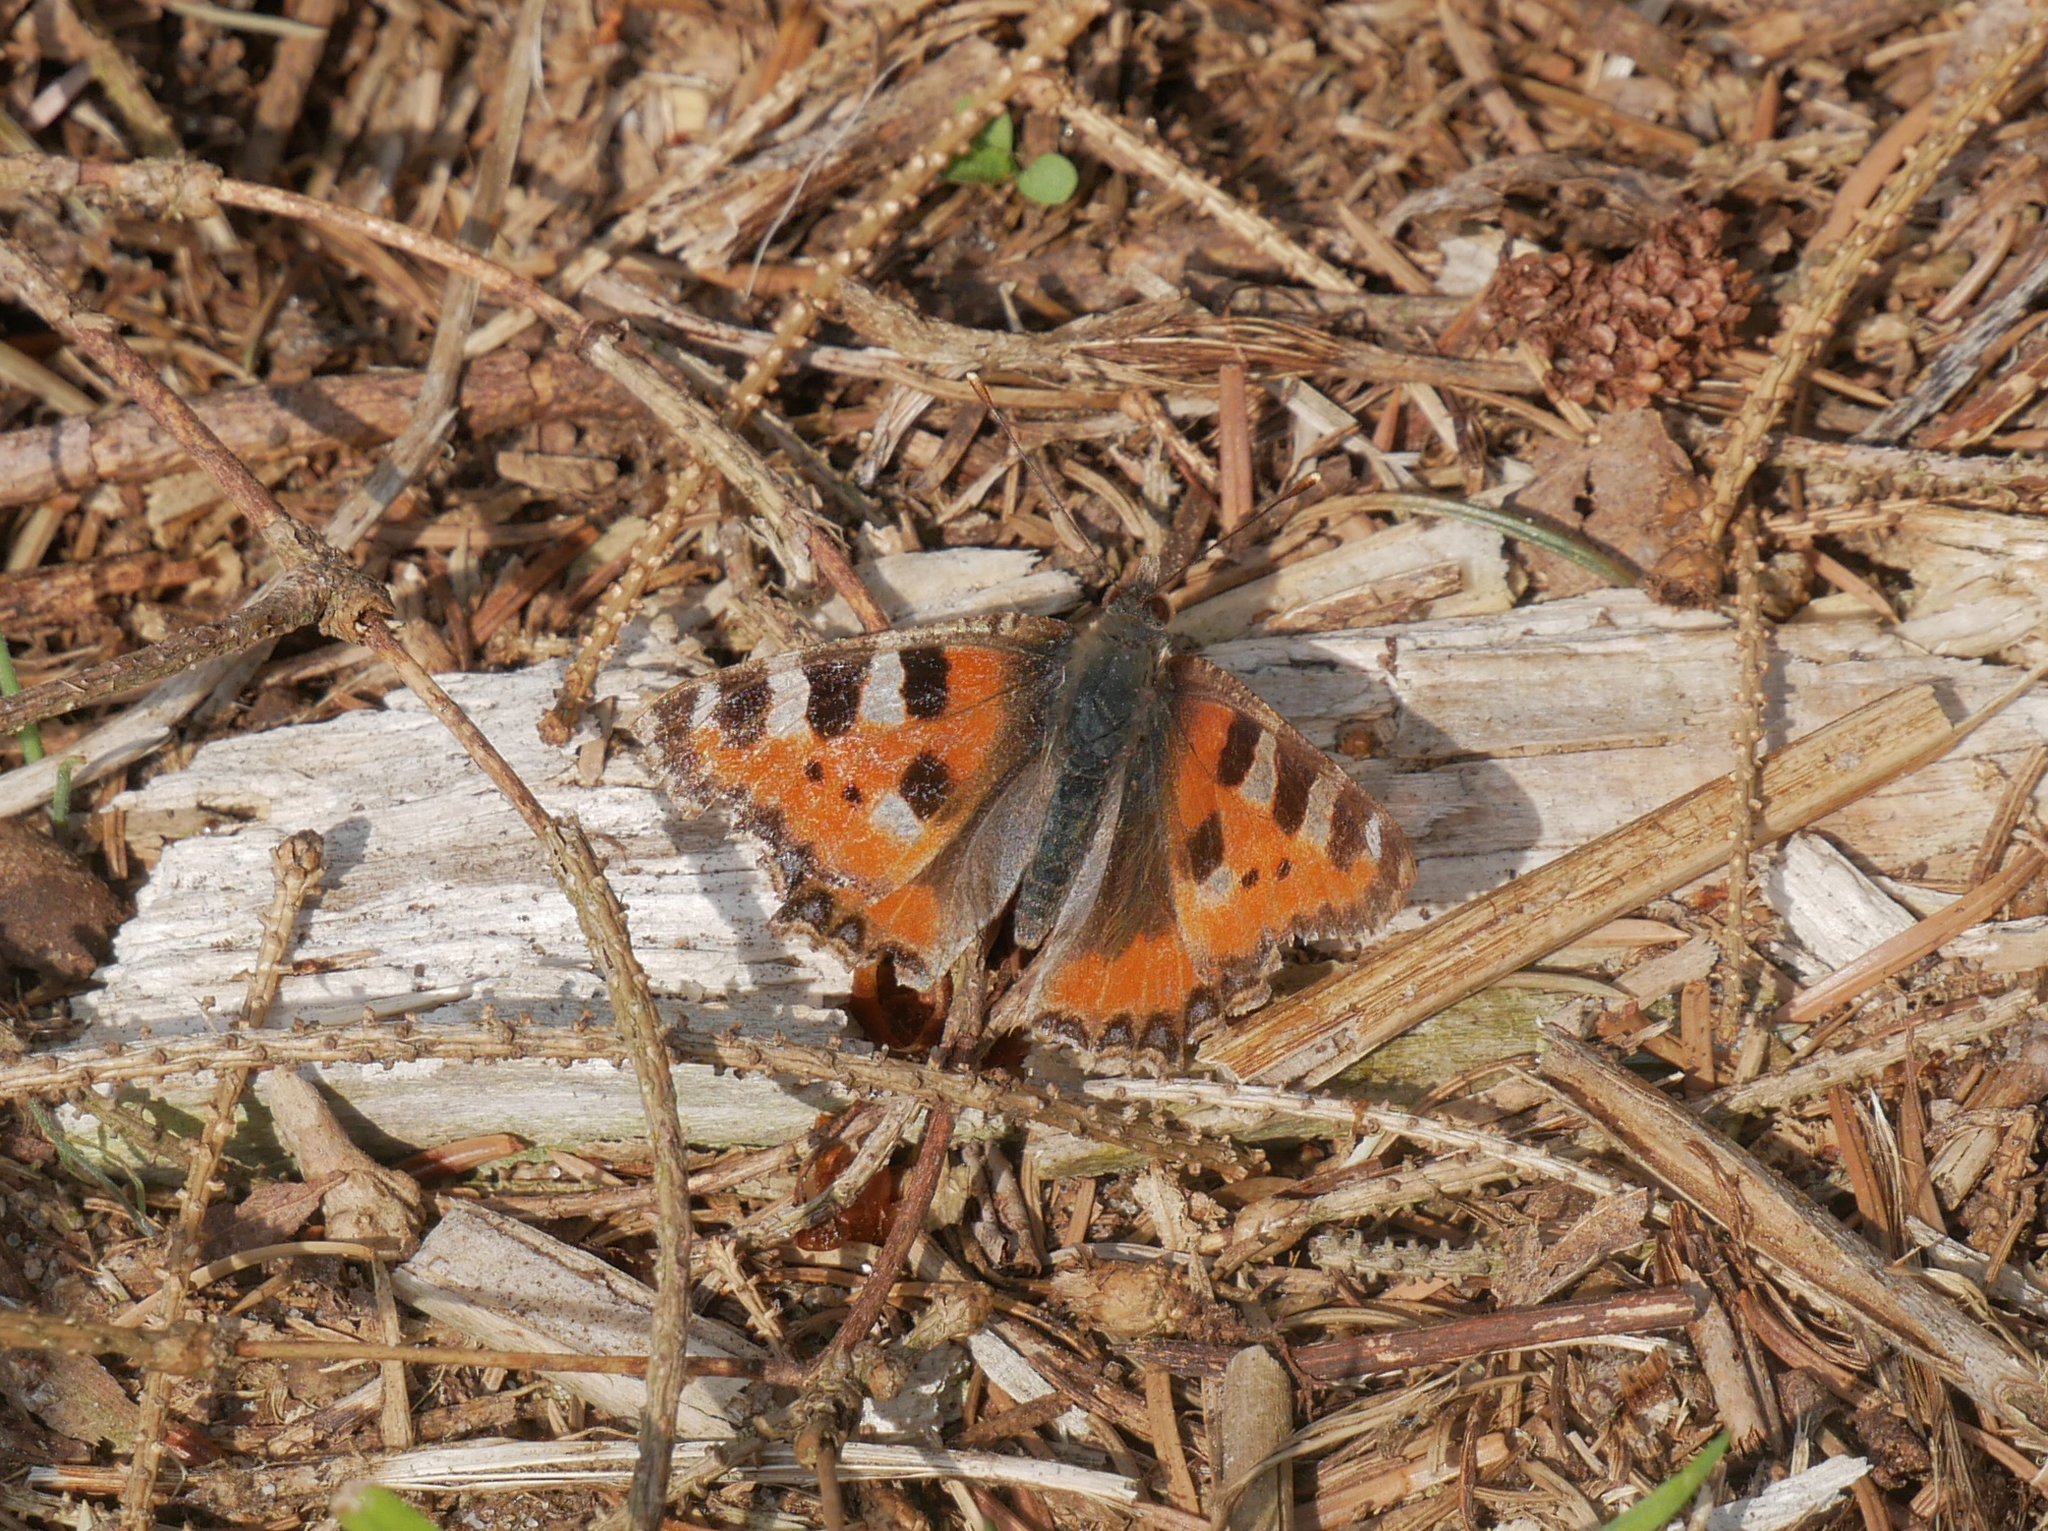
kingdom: Animalia
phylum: Arthropoda
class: Insecta
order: Lepidoptera
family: Nymphalidae
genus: Aglais
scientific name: Aglais urticae
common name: Small tortoiseshell
